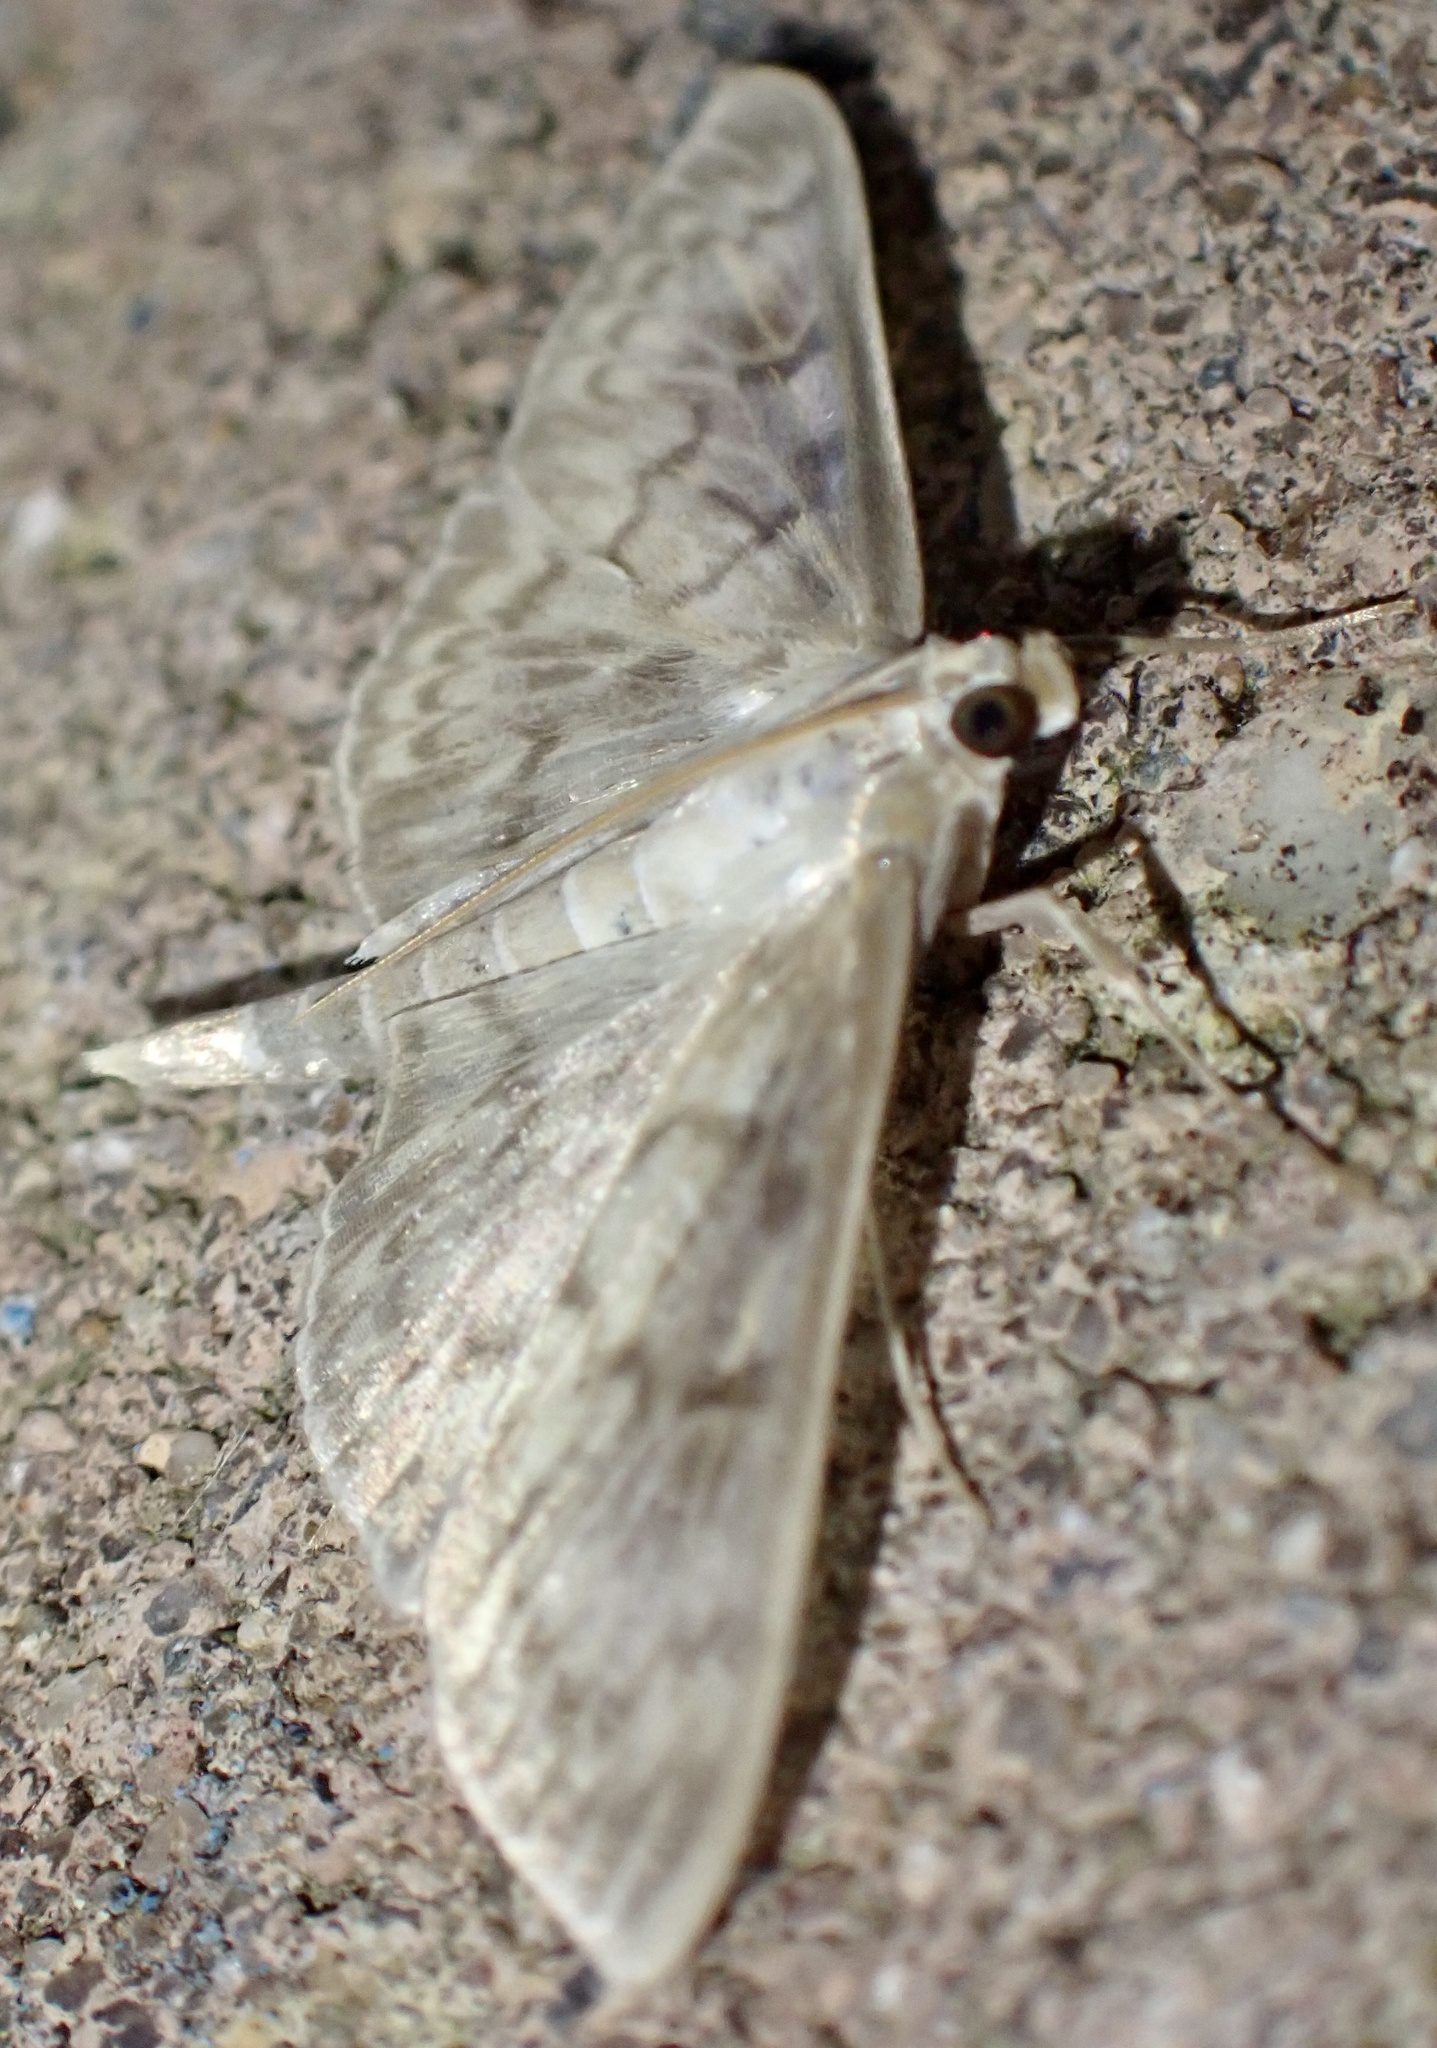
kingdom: Animalia
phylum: Arthropoda
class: Insecta
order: Lepidoptera
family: Crambidae
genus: Patania
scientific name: Patania ruralis
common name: Mother of pearl
